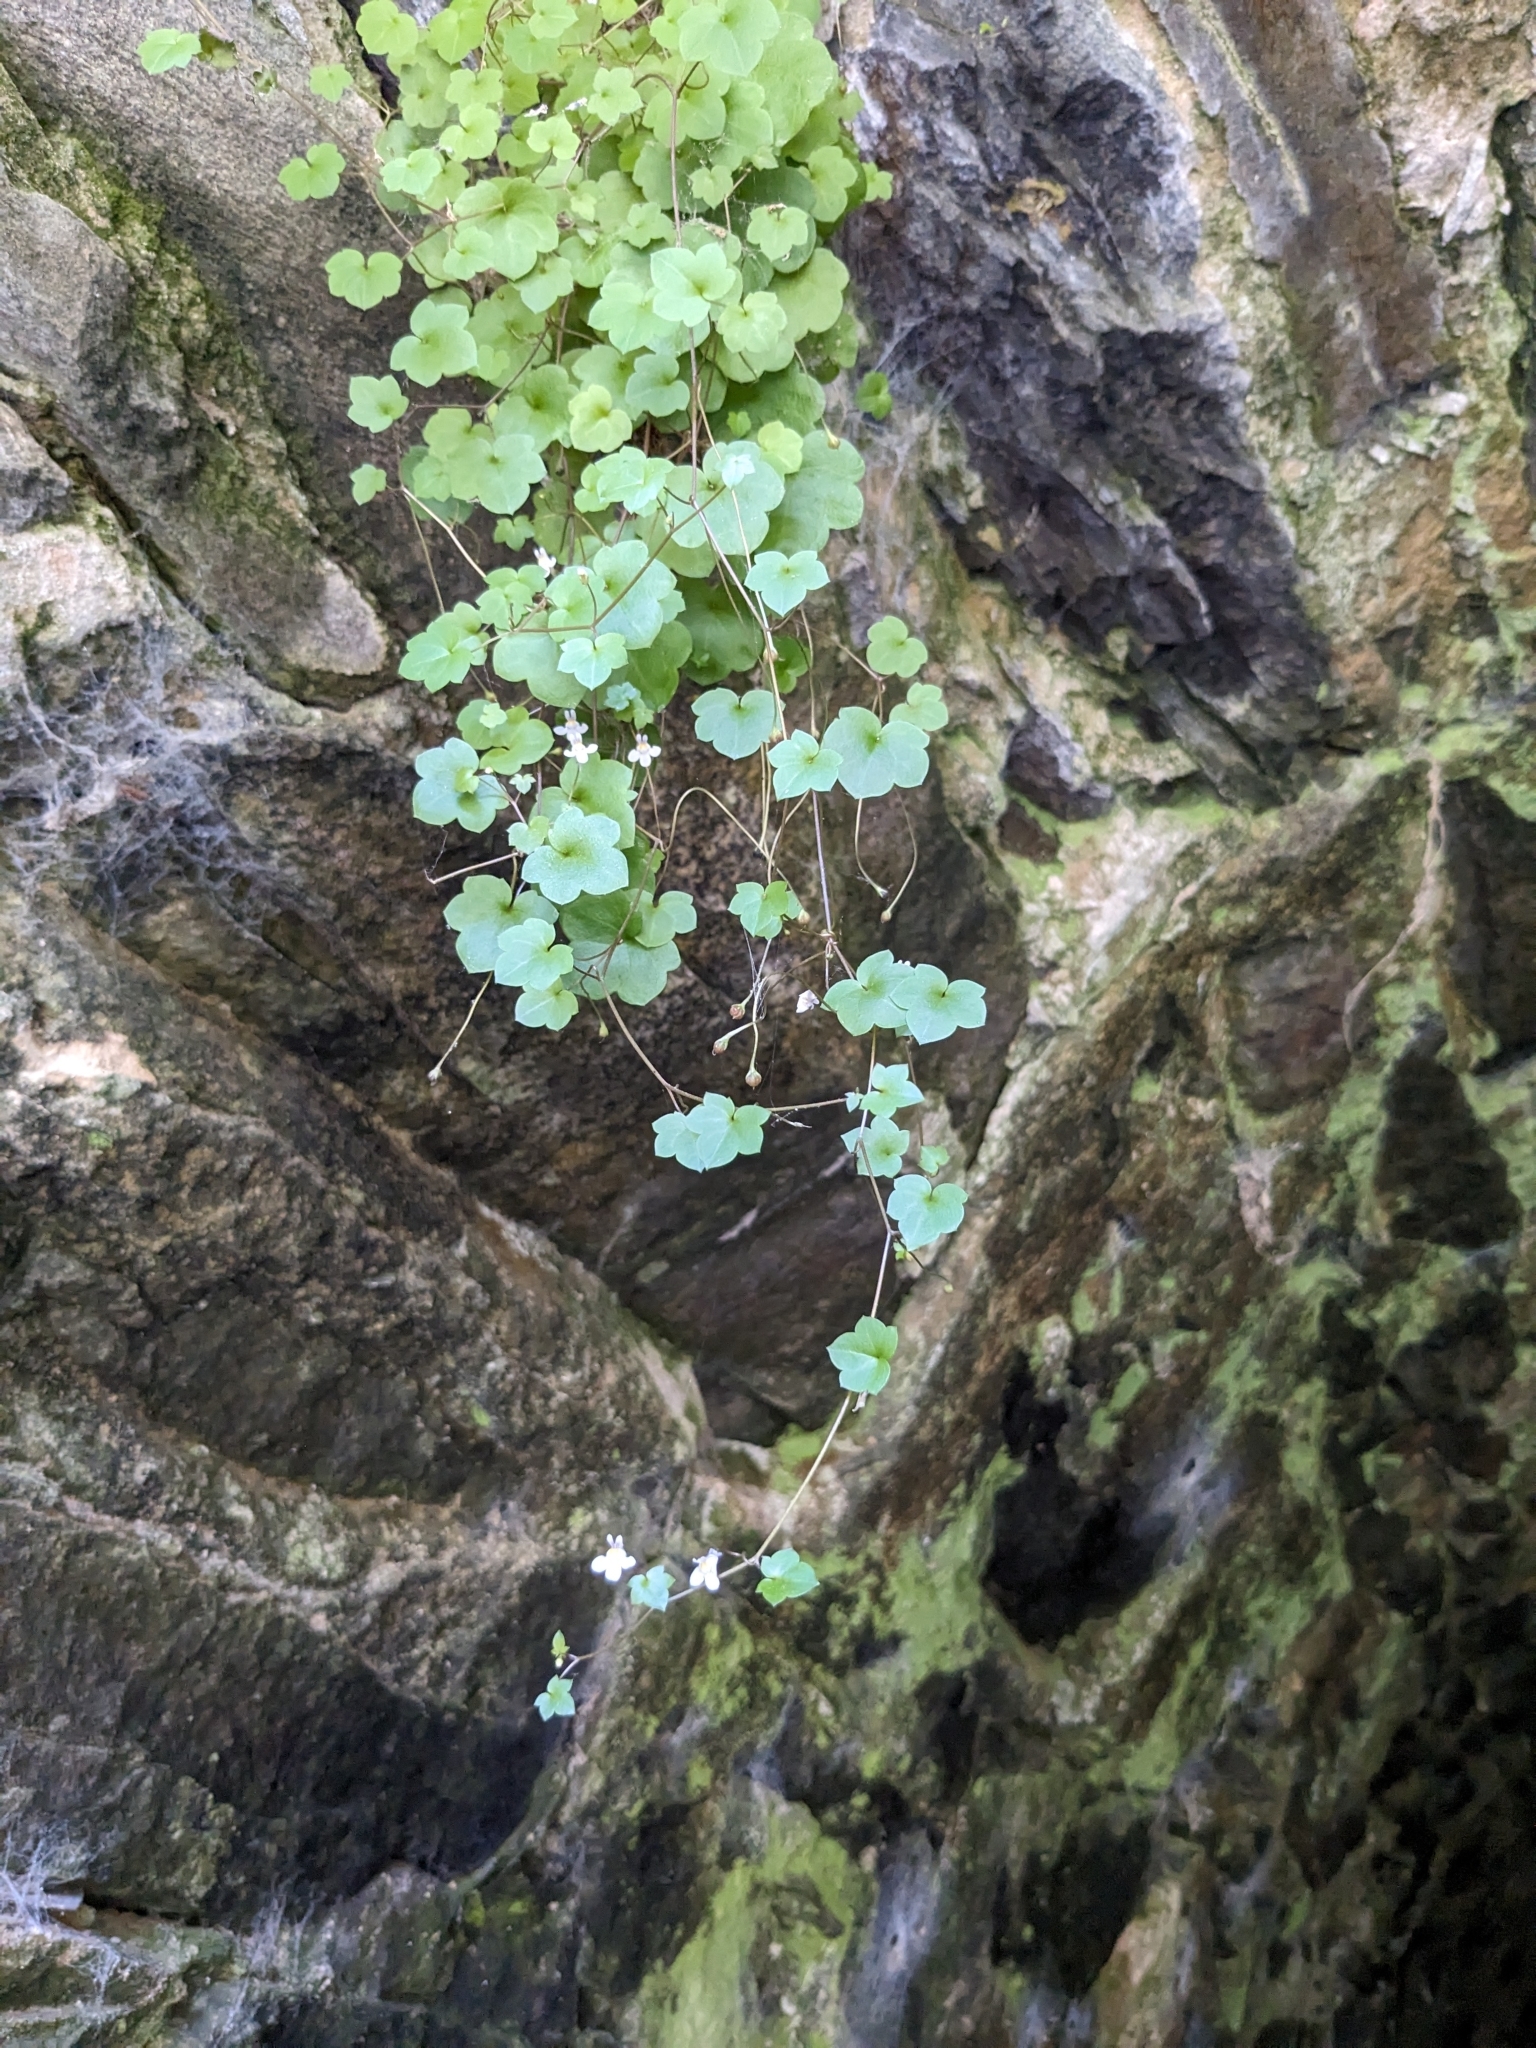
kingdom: Plantae
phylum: Tracheophyta
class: Magnoliopsida
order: Lamiales
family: Plantaginaceae
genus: Cymbalaria
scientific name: Cymbalaria muralis
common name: Ivy-leaved toadflax
